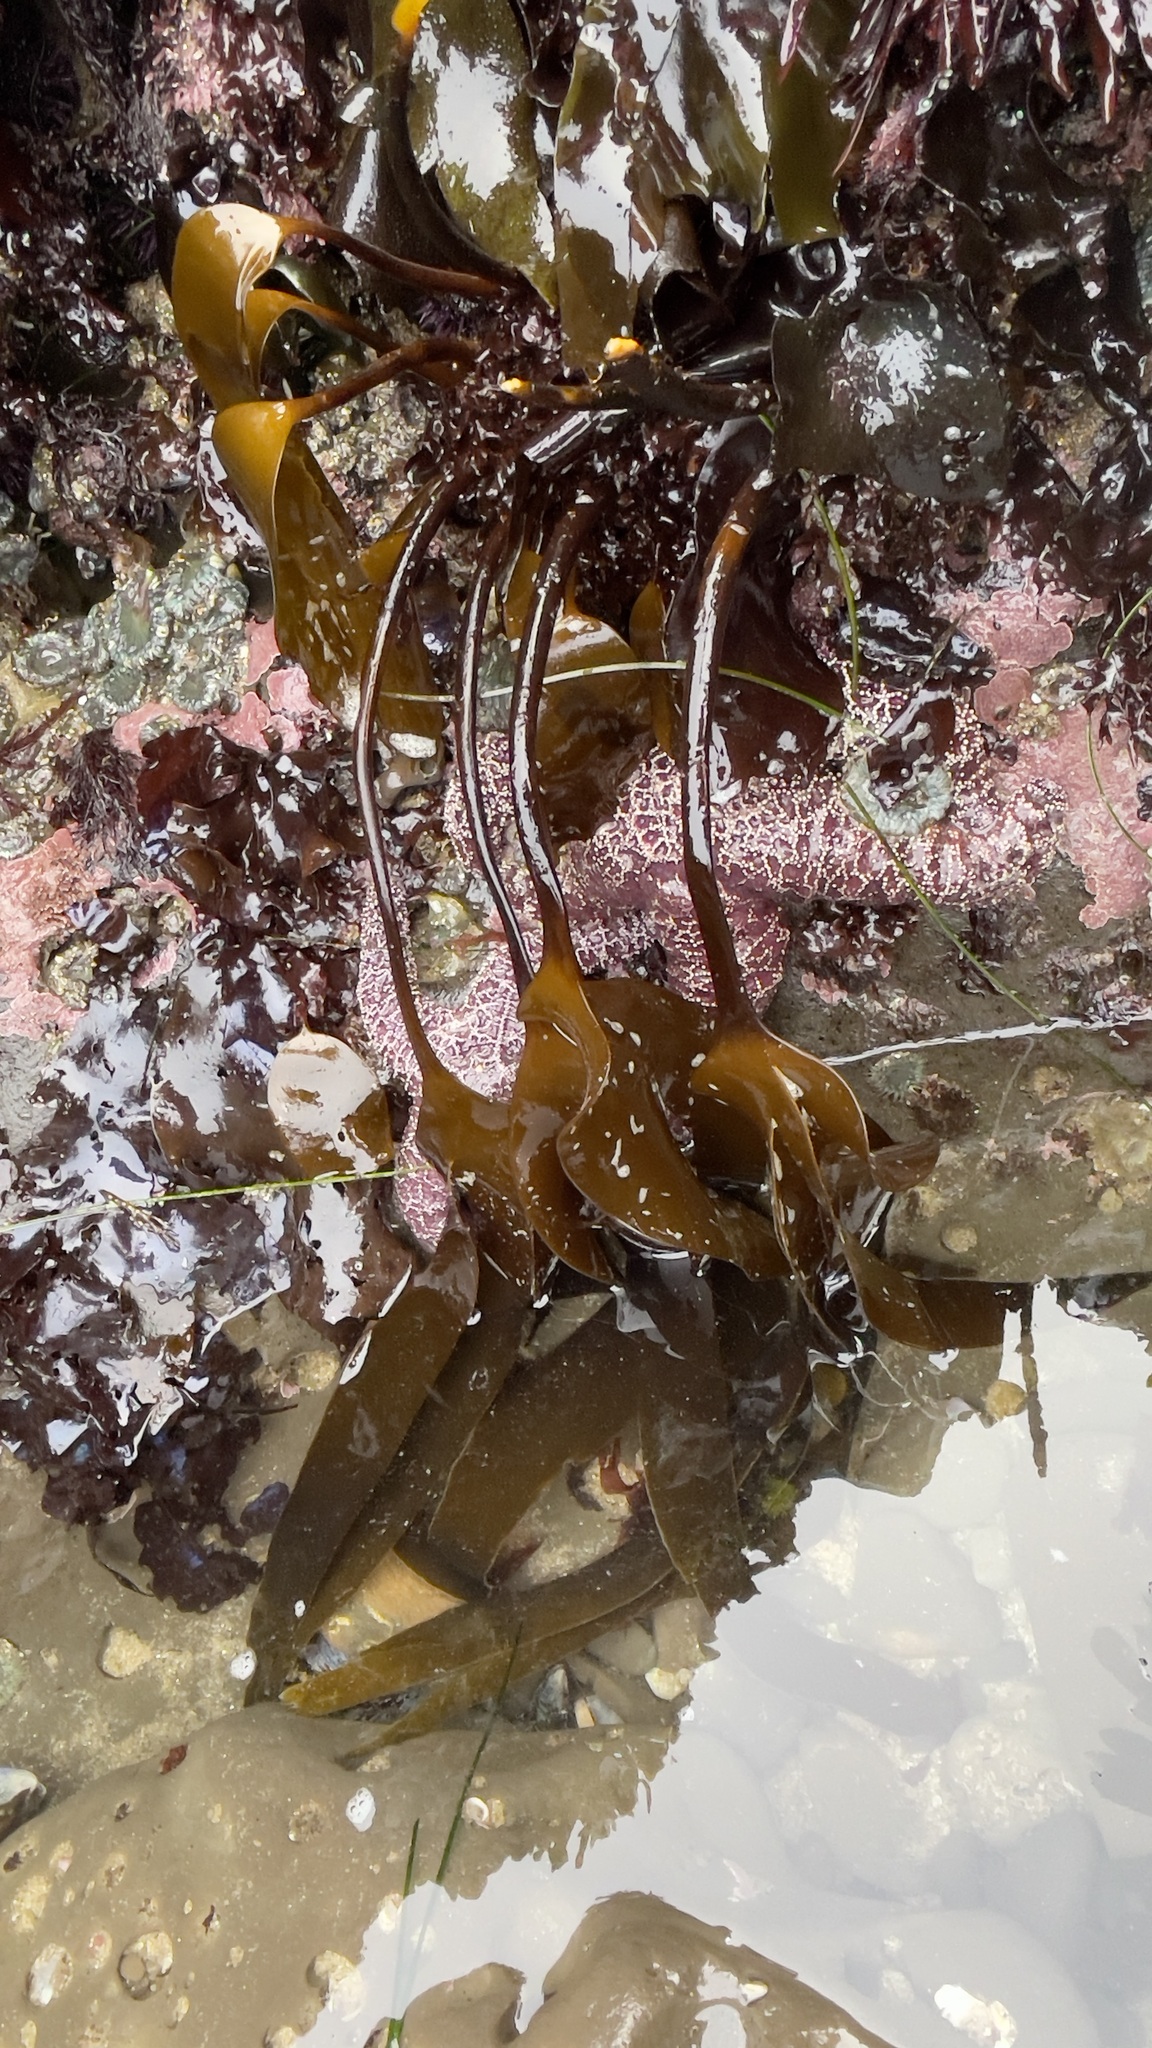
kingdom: Chromista
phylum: Ochrophyta
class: Phaeophyceae
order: Laminariales
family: Laminariaceae
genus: Laminaria
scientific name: Laminaria setchellii
